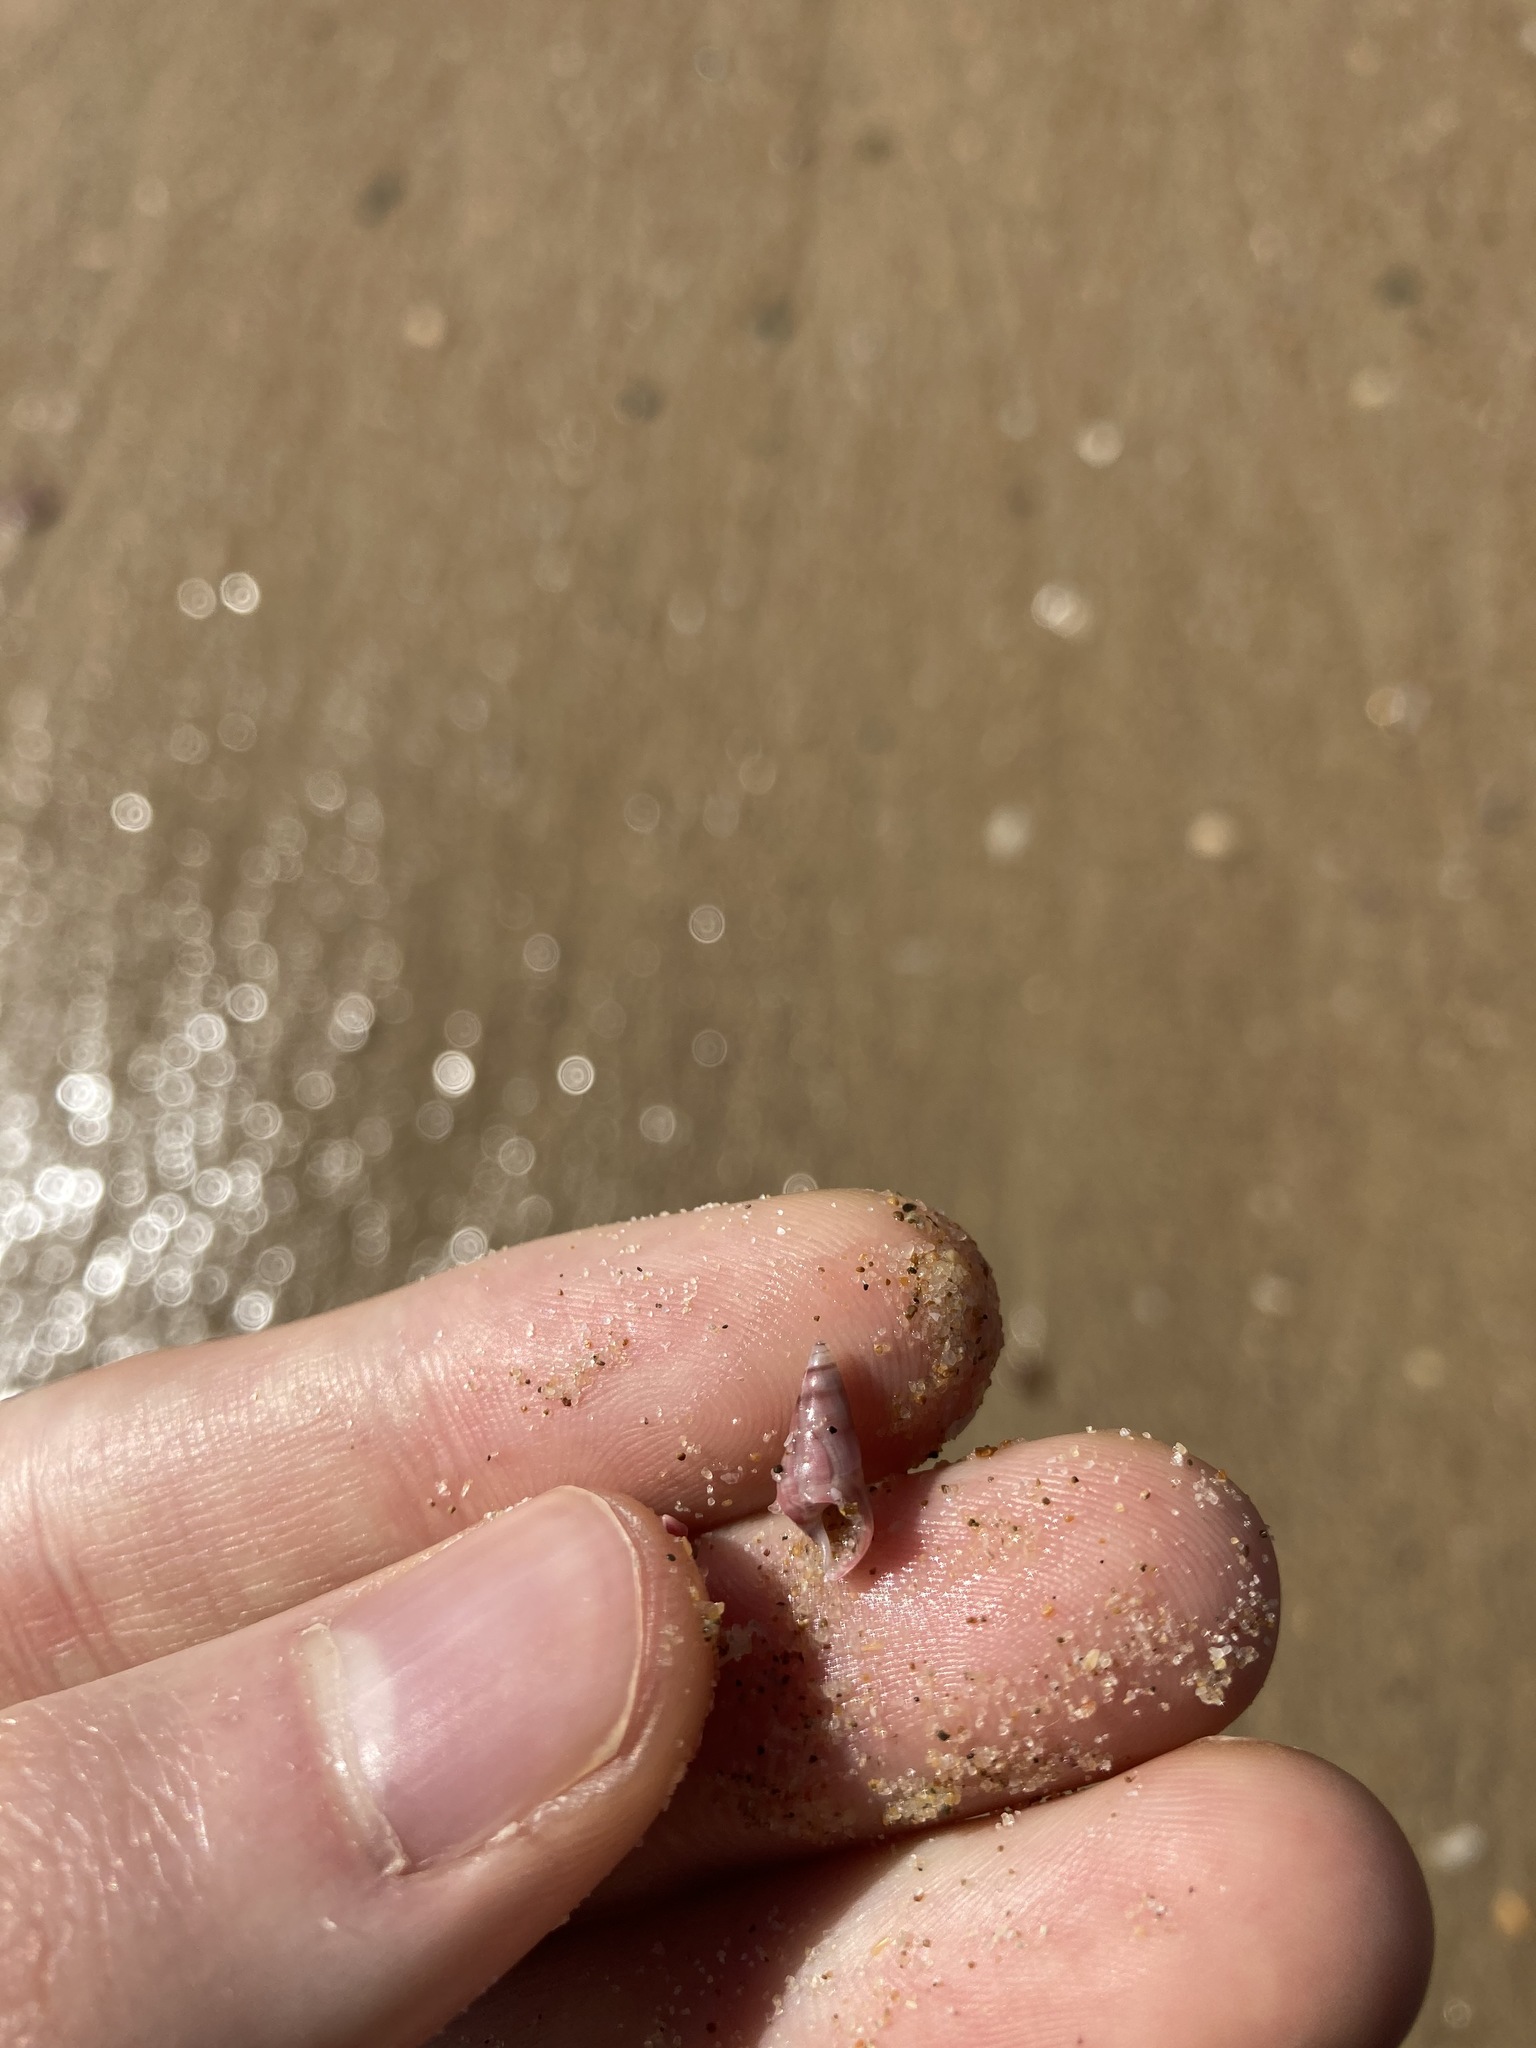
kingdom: Animalia
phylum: Mollusca
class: Gastropoda
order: Trochida
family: Trochidae
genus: Bankivia
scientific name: Bankivia fasciata
